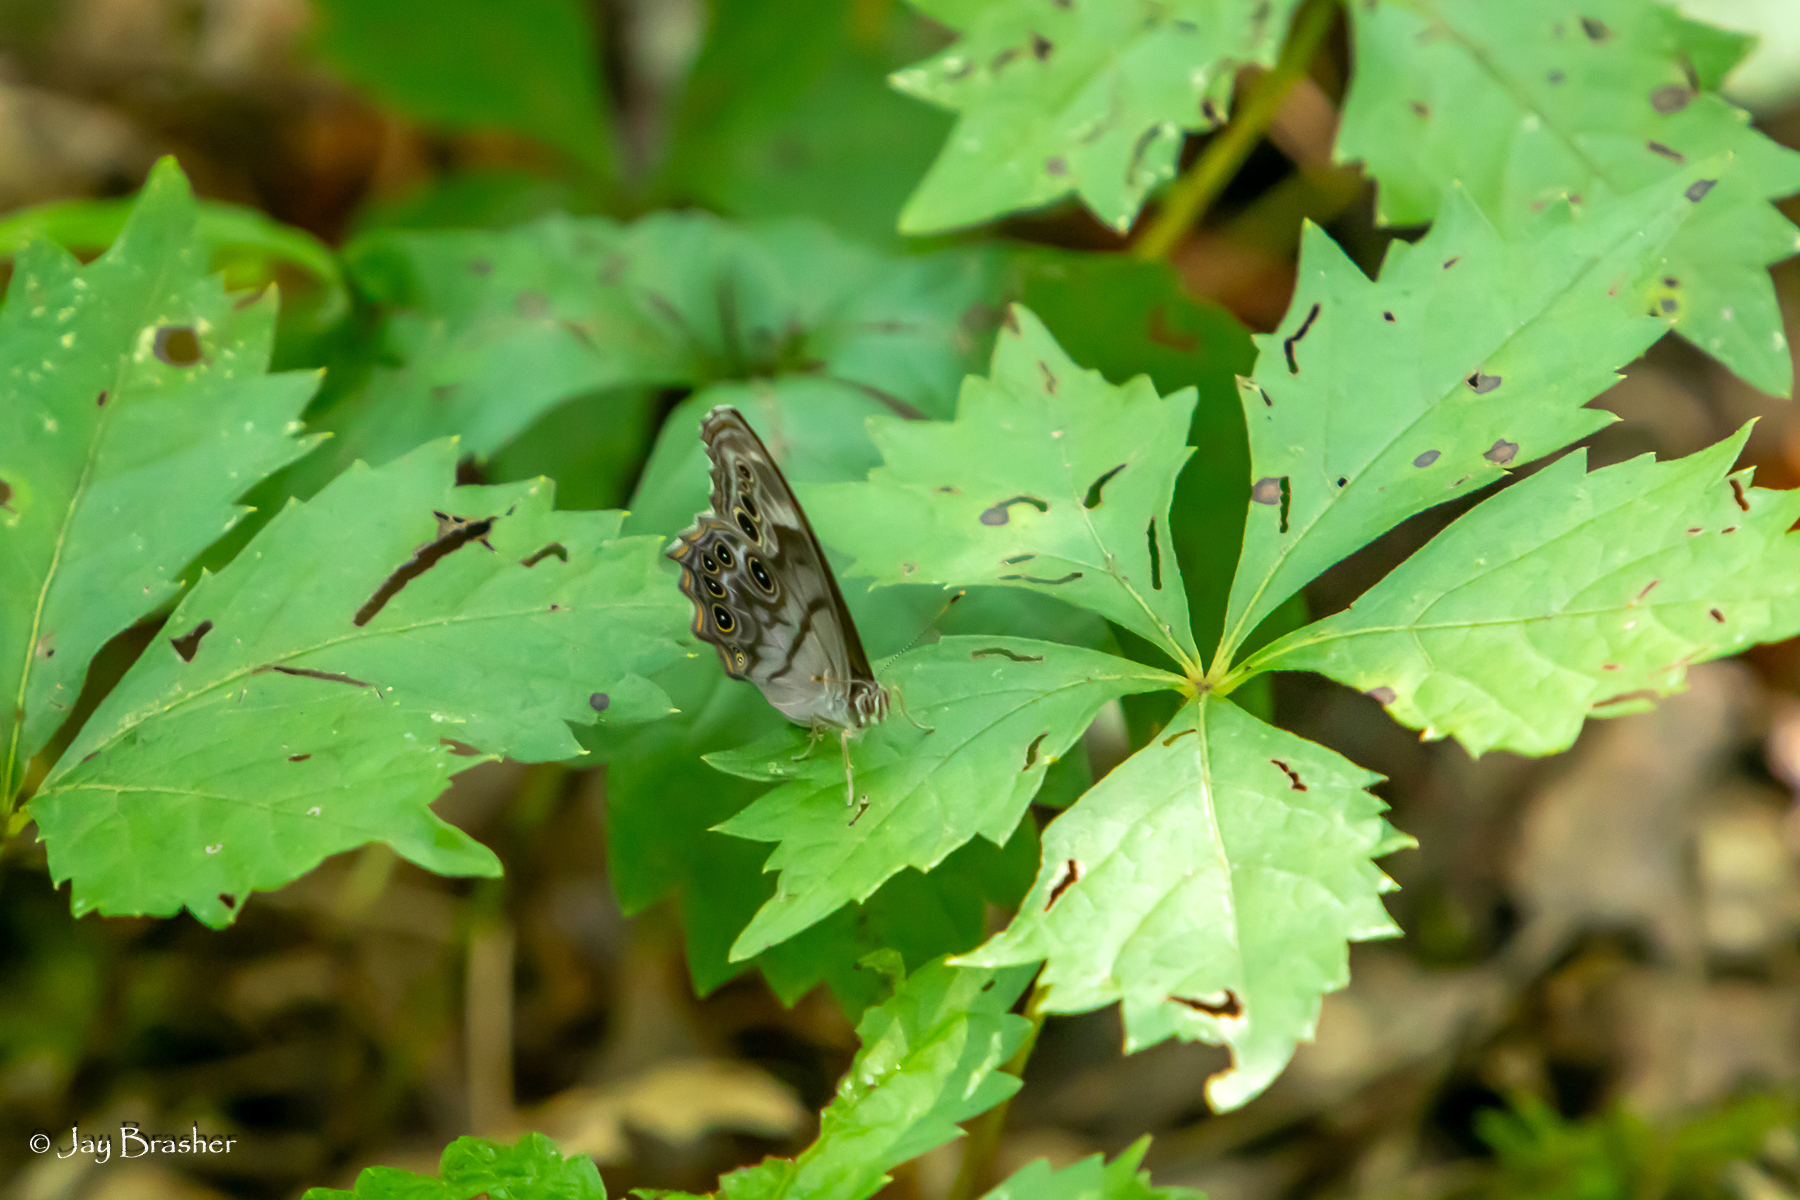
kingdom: Animalia
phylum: Arthropoda
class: Insecta
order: Lepidoptera
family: Nymphalidae
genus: Lethe
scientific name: Lethe anthedon
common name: Northern pearly-eye
